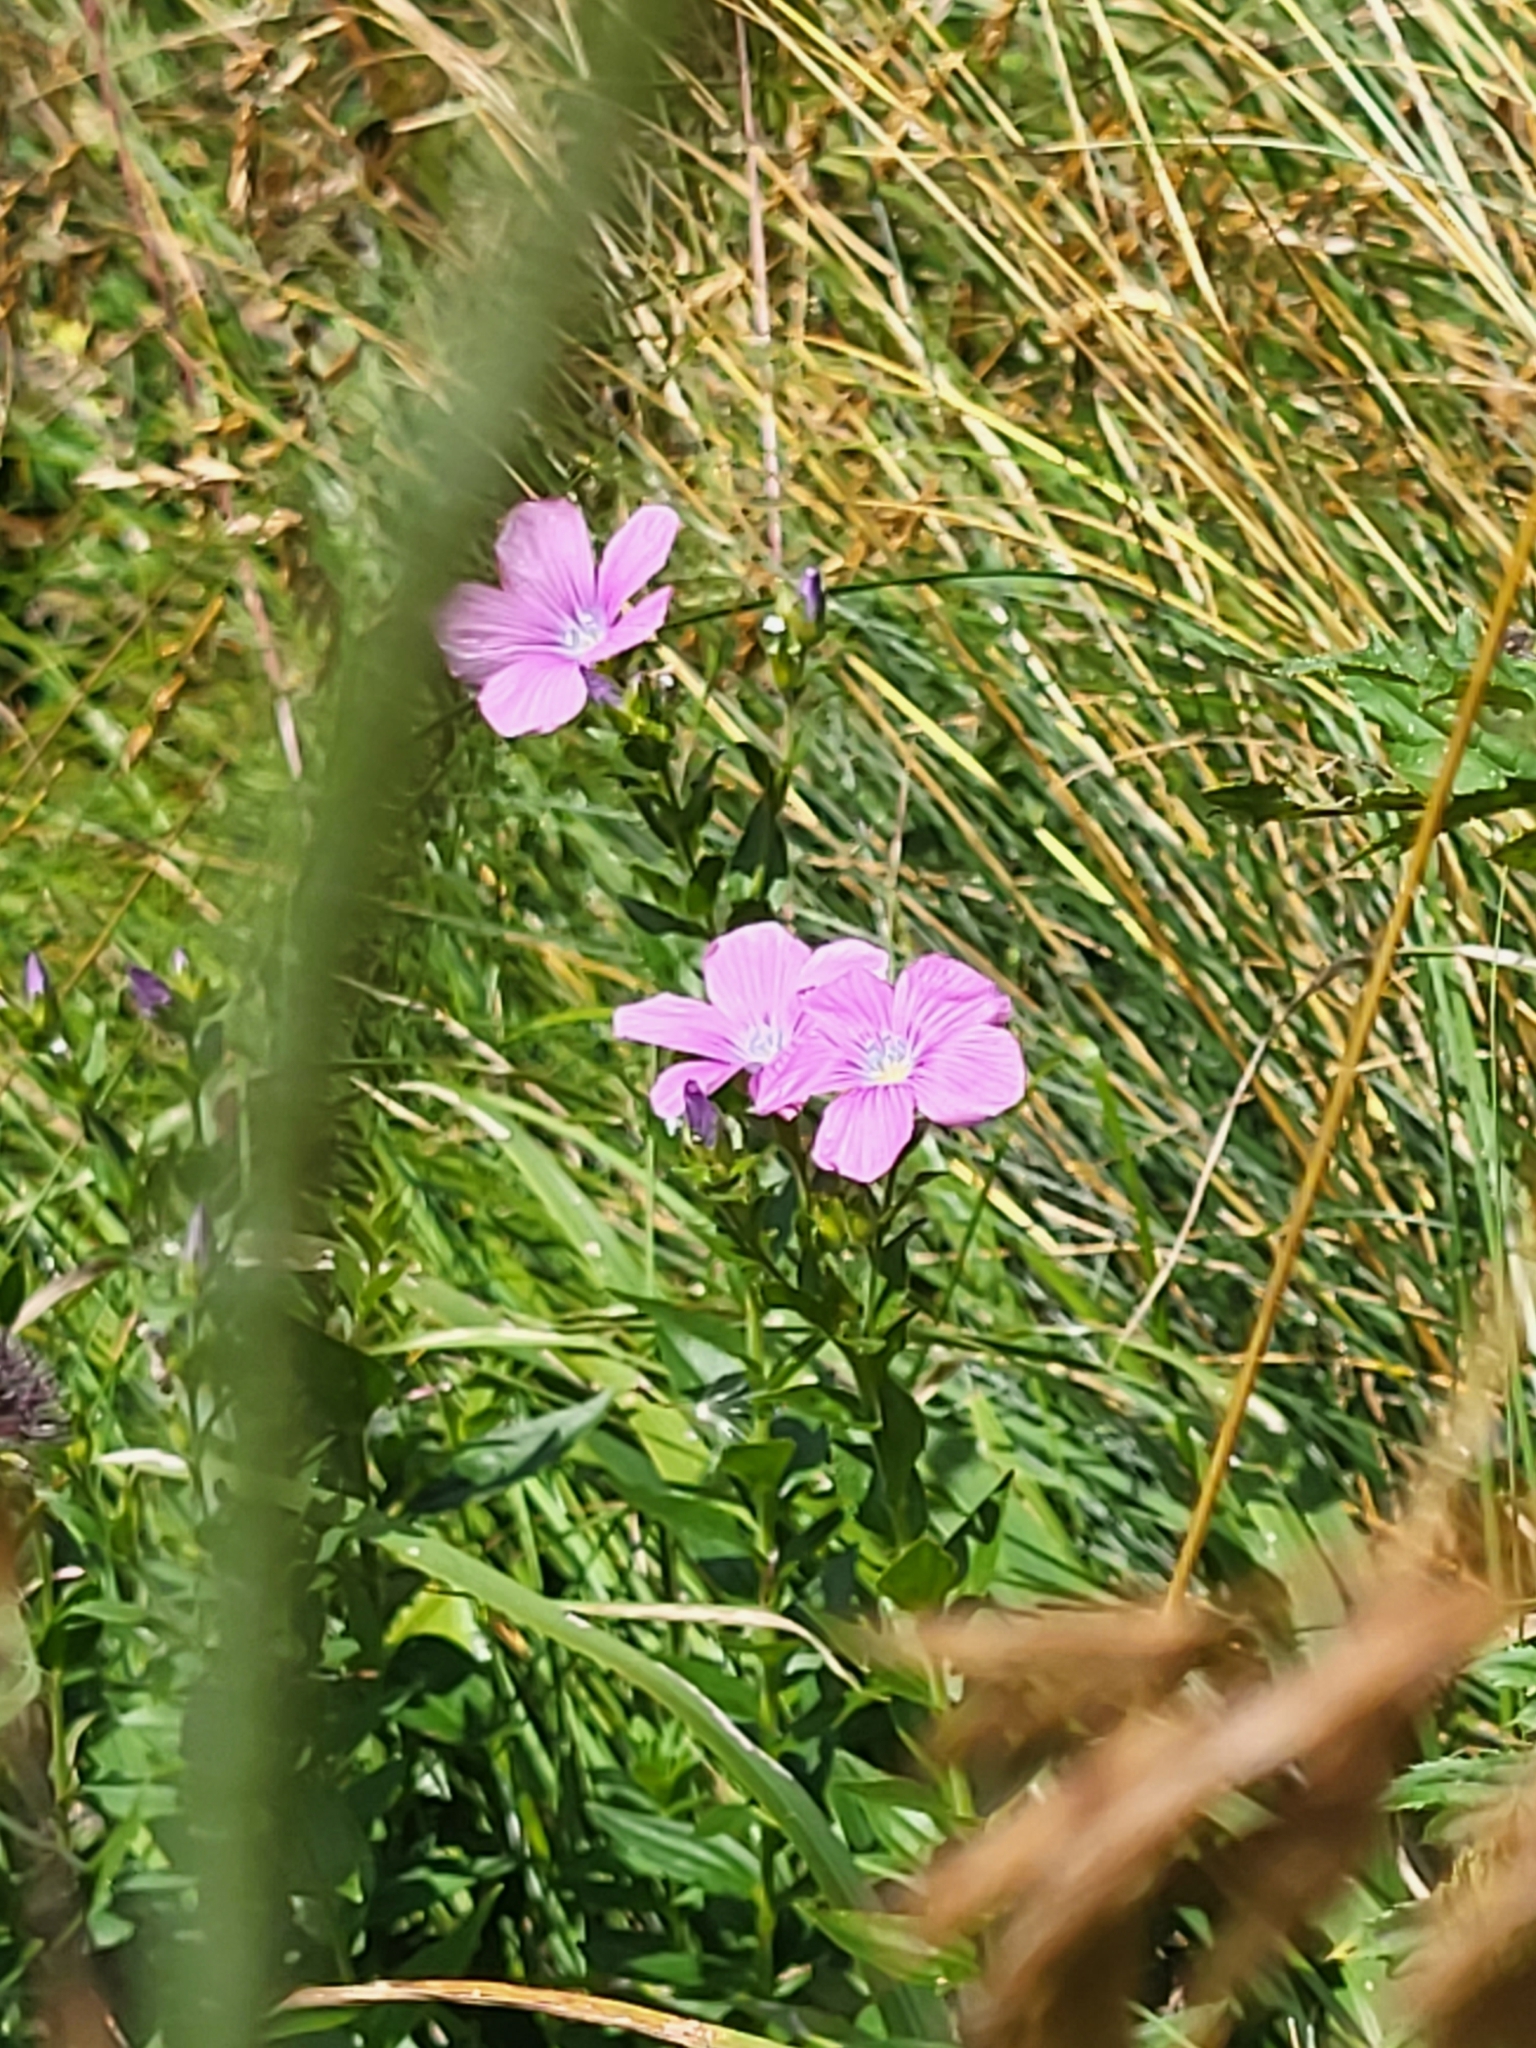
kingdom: Plantae
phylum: Tracheophyta
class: Magnoliopsida
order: Malpighiales
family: Linaceae
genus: Linum
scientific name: Linum viscosum
